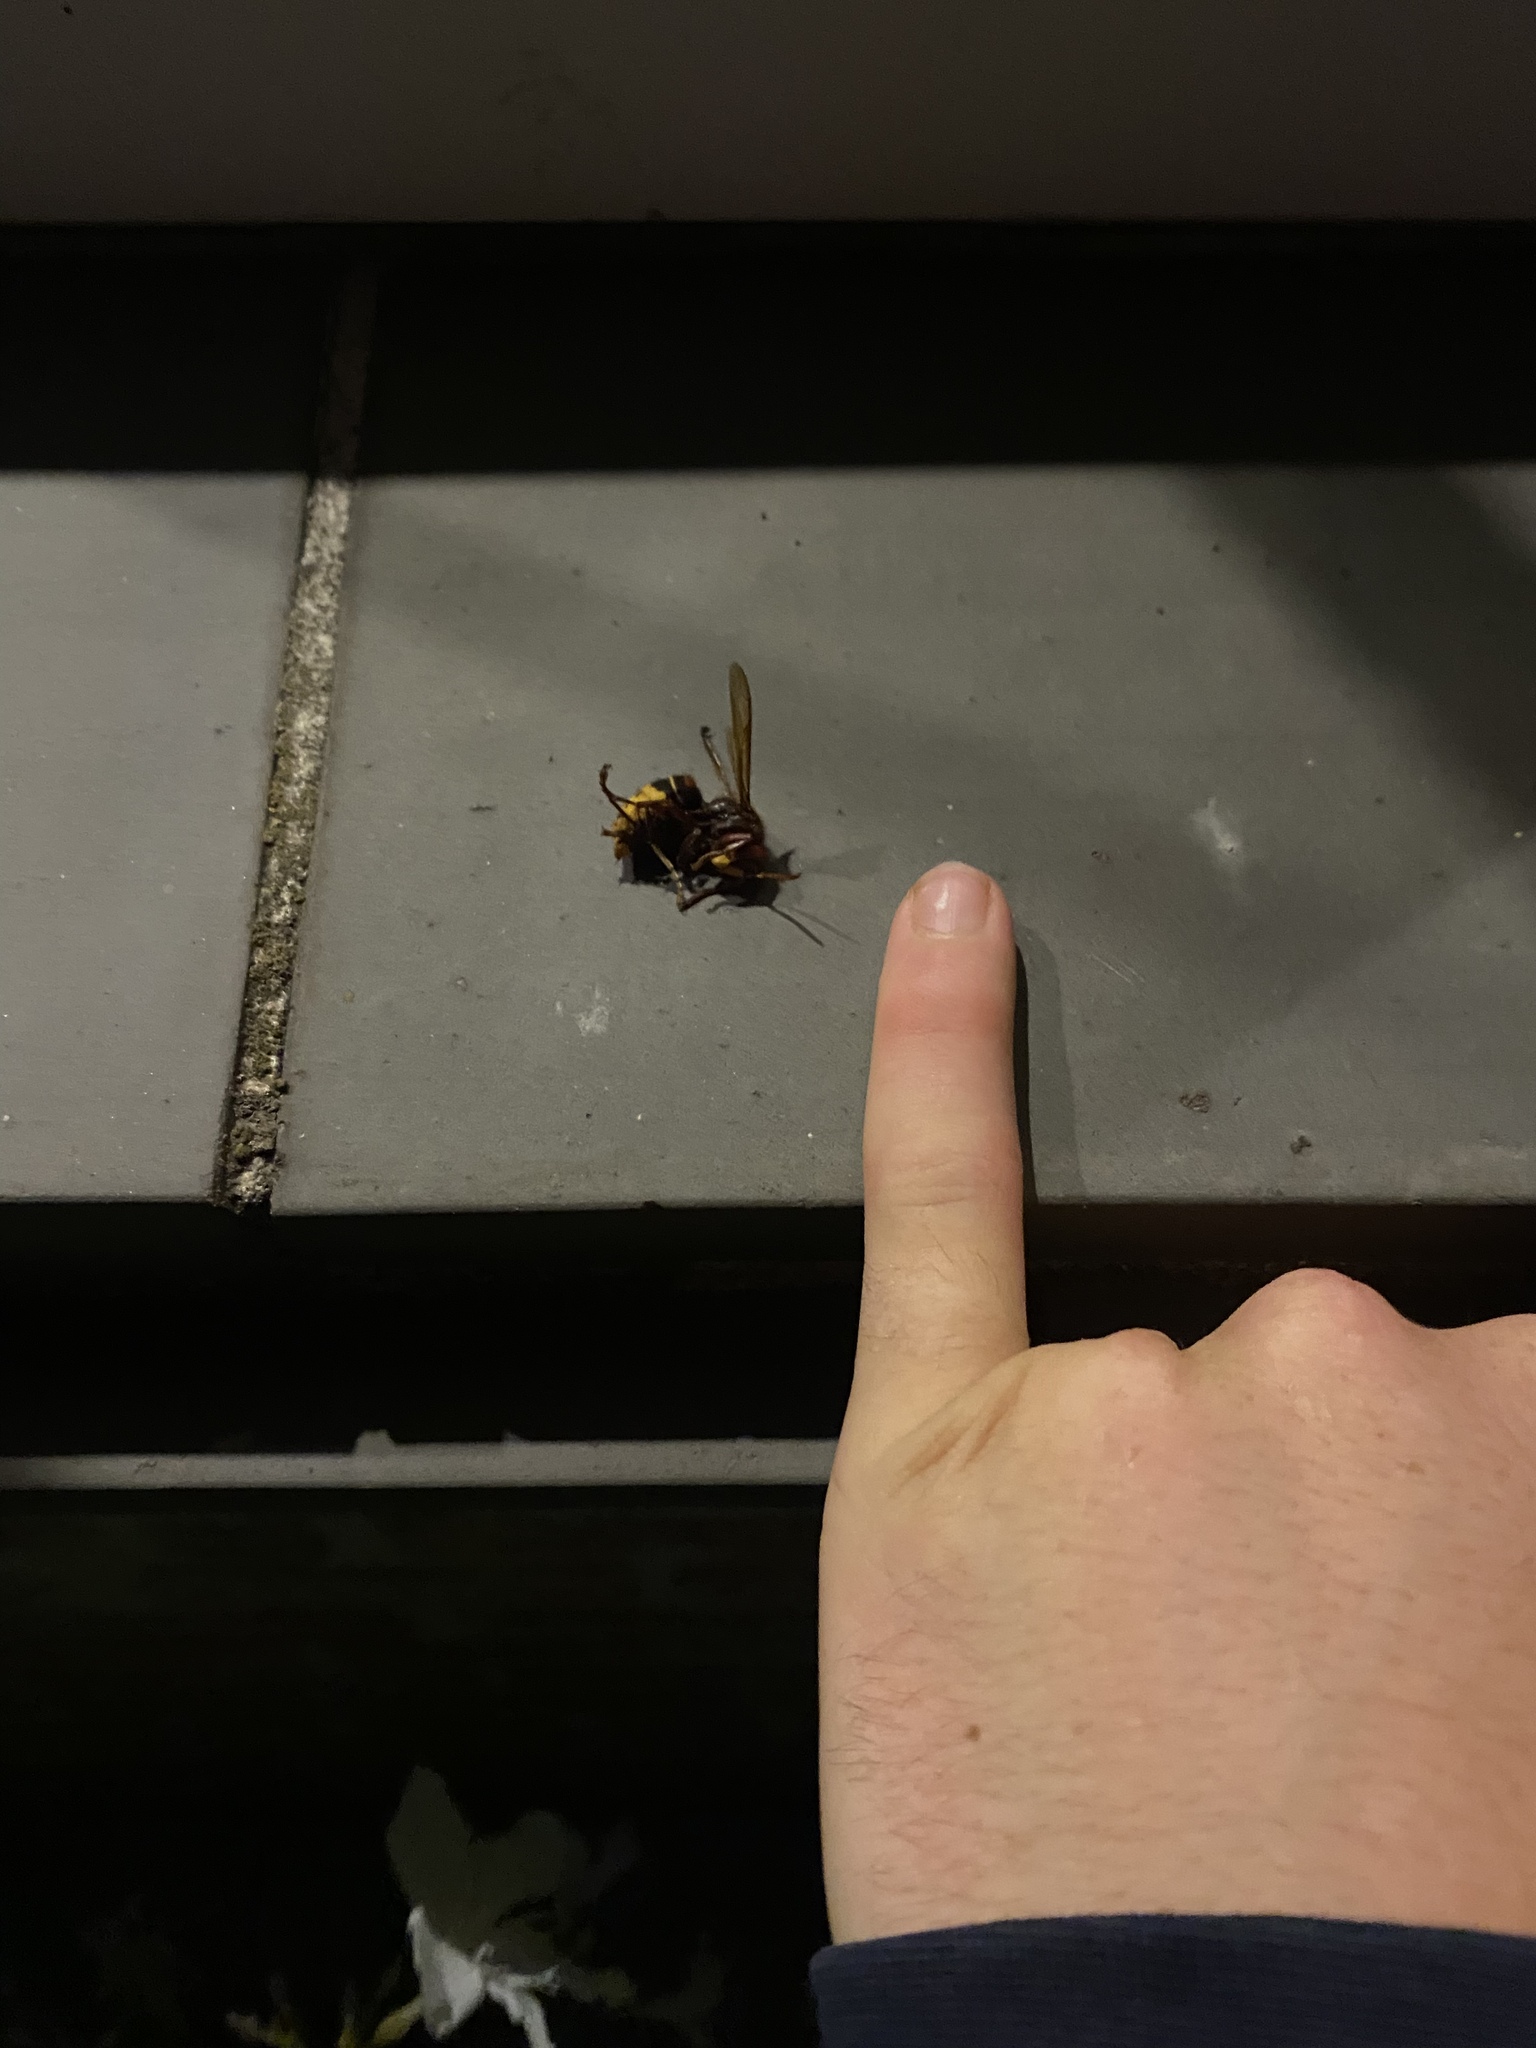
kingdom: Animalia
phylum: Arthropoda
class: Insecta
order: Hymenoptera
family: Vespidae
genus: Vespa
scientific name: Vespa crabro
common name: Hornet
